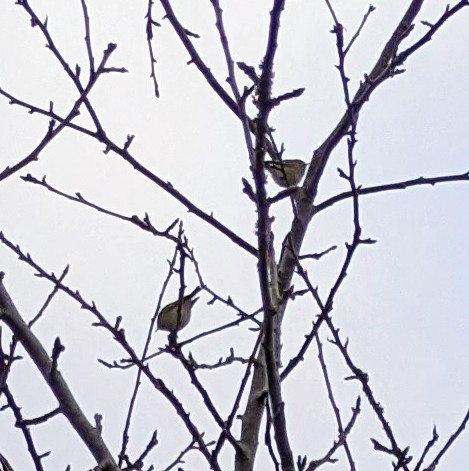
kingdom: Animalia
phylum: Chordata
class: Aves
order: Passeriformes
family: Regulidae
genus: Regulus
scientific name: Regulus regulus
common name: Goldcrest
